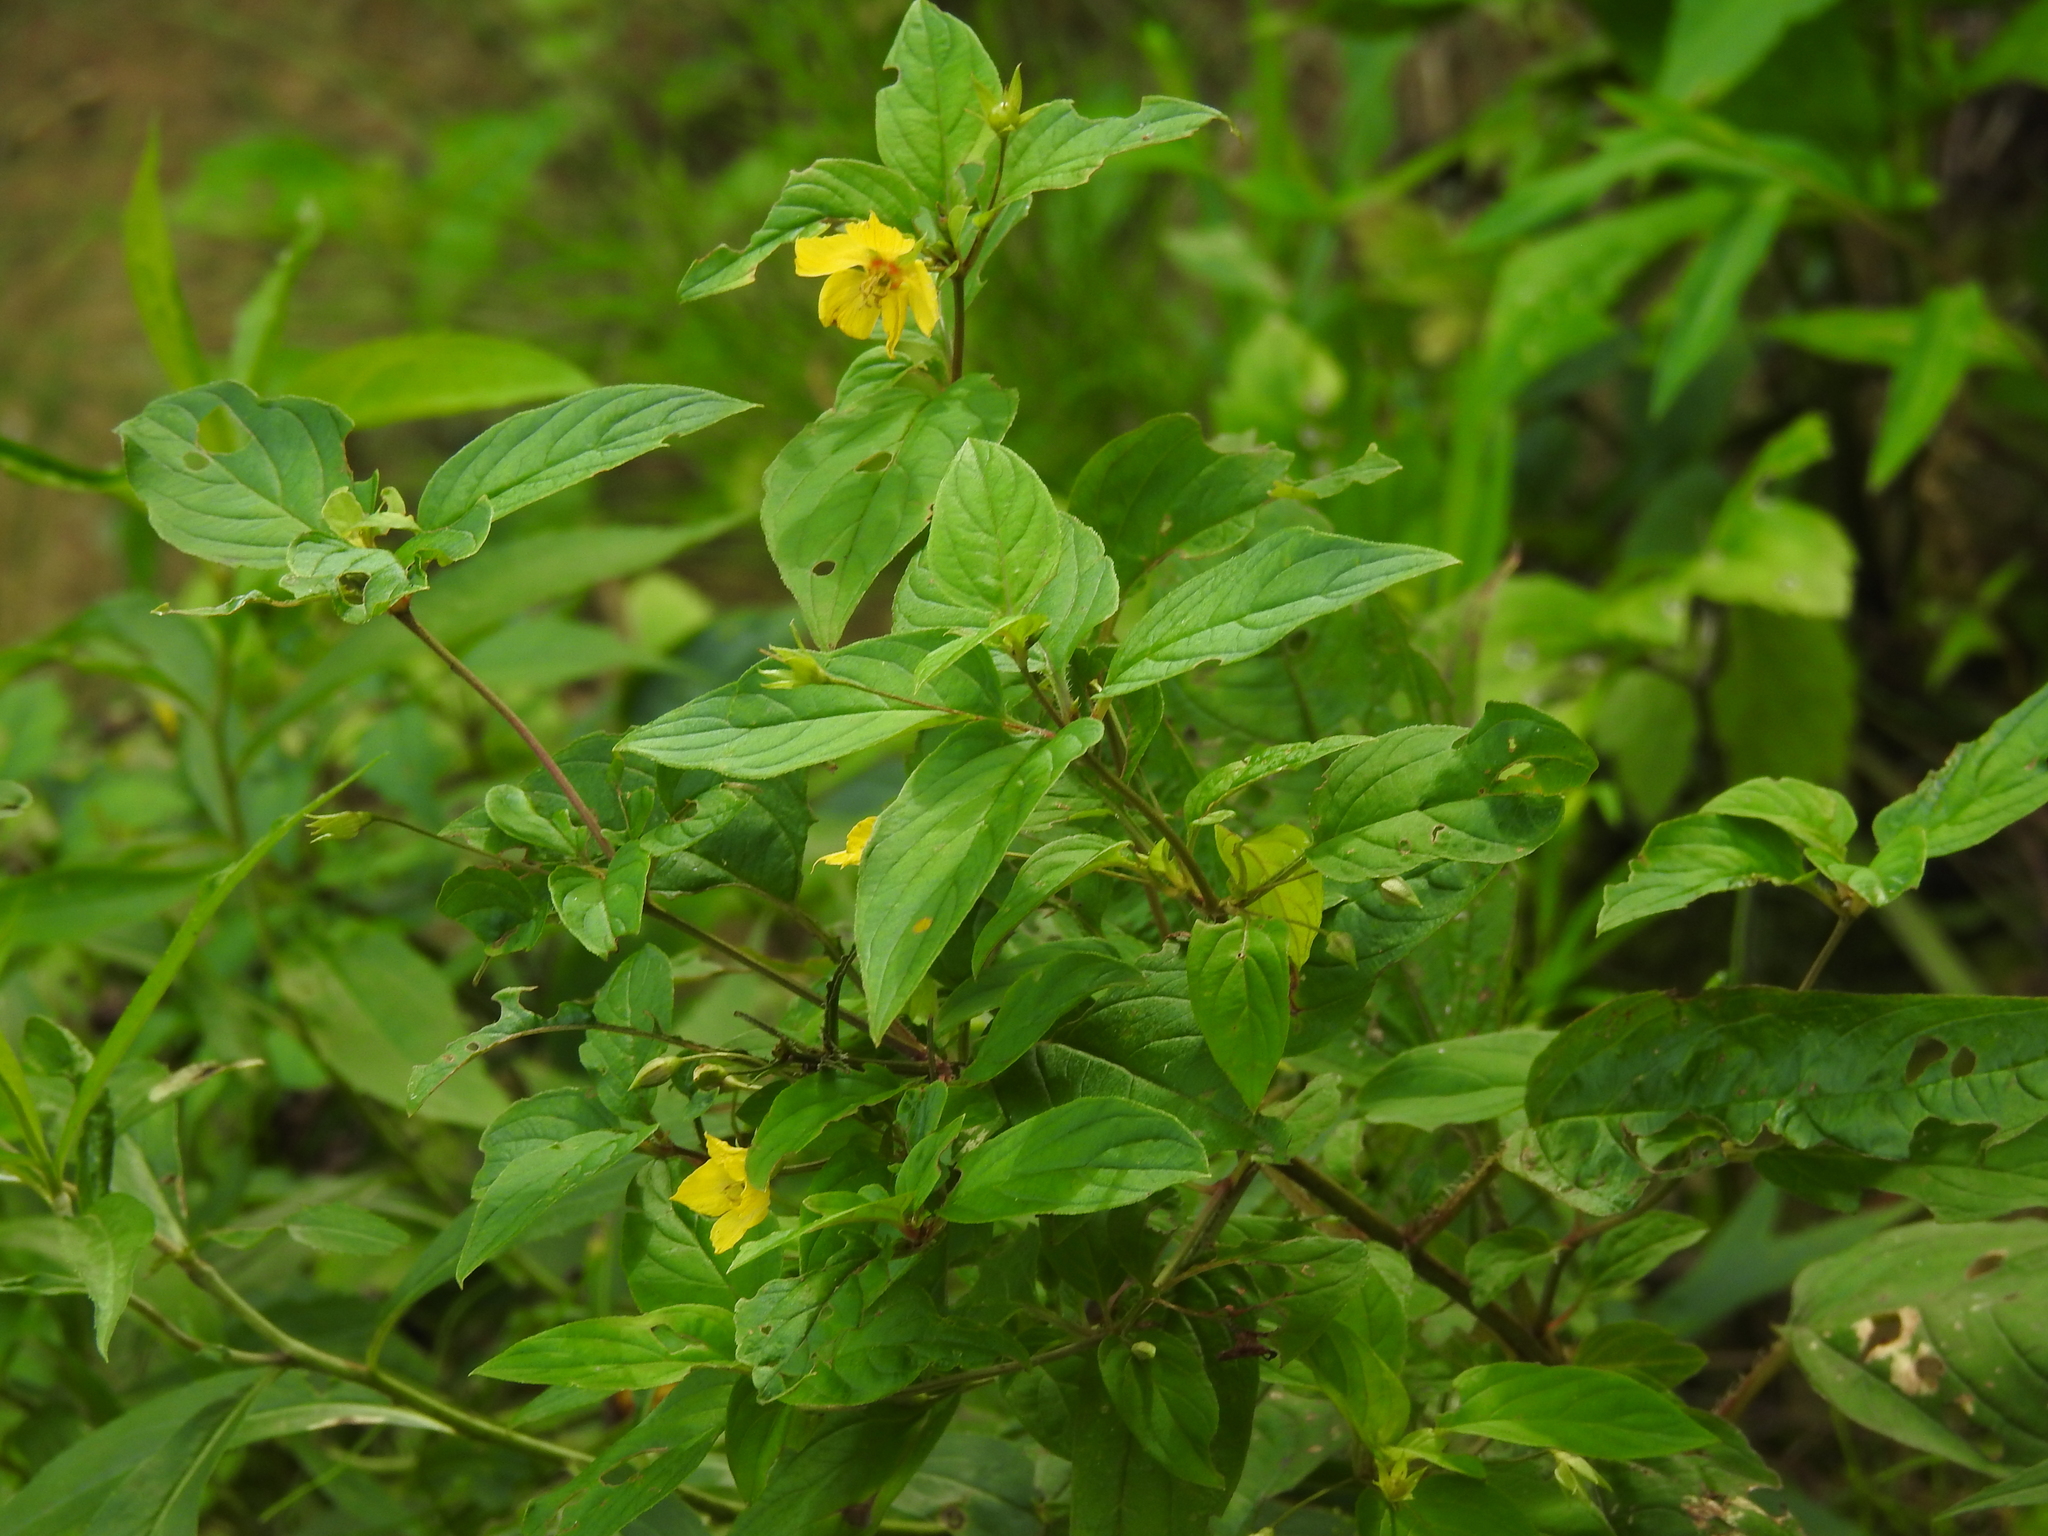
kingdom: Plantae
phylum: Tracheophyta
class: Magnoliopsida
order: Ericales
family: Primulaceae
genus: Lysimachia
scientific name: Lysimachia ciliata
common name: Fringed loosestrife
